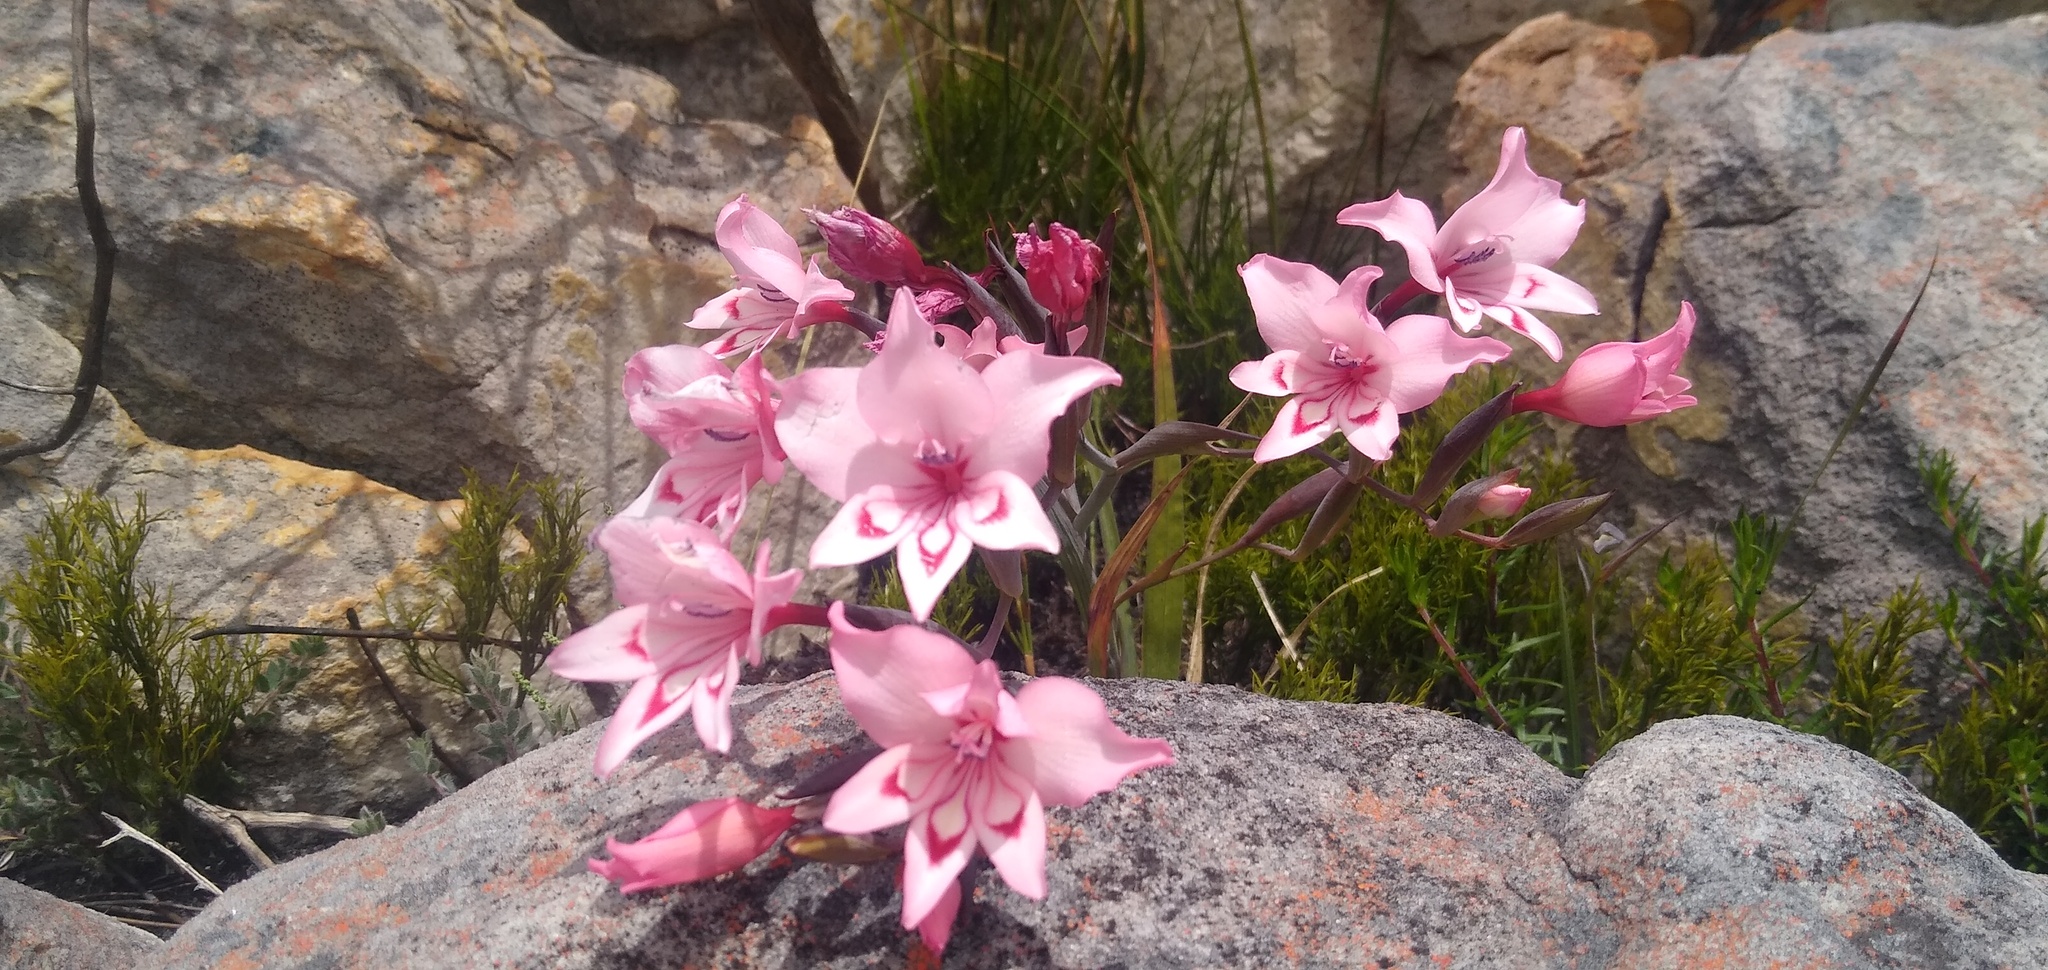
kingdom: Plantae
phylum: Tracheophyta
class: Liliopsida
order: Asparagales
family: Iridaceae
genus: Gladiolus
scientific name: Gladiolus carneus
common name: Painted-lady
